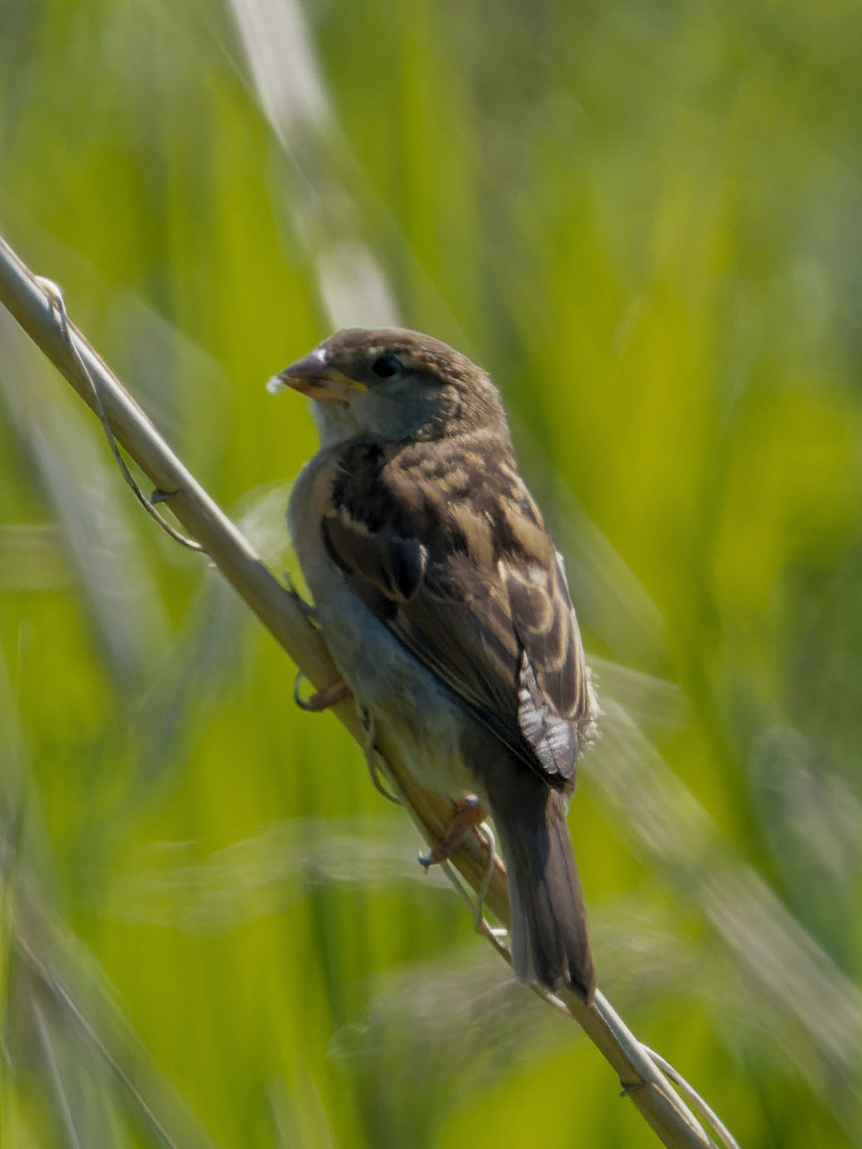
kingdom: Animalia
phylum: Chordata
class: Aves
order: Passeriformes
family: Passeridae
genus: Passer
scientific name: Passer domesticus
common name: House sparrow
